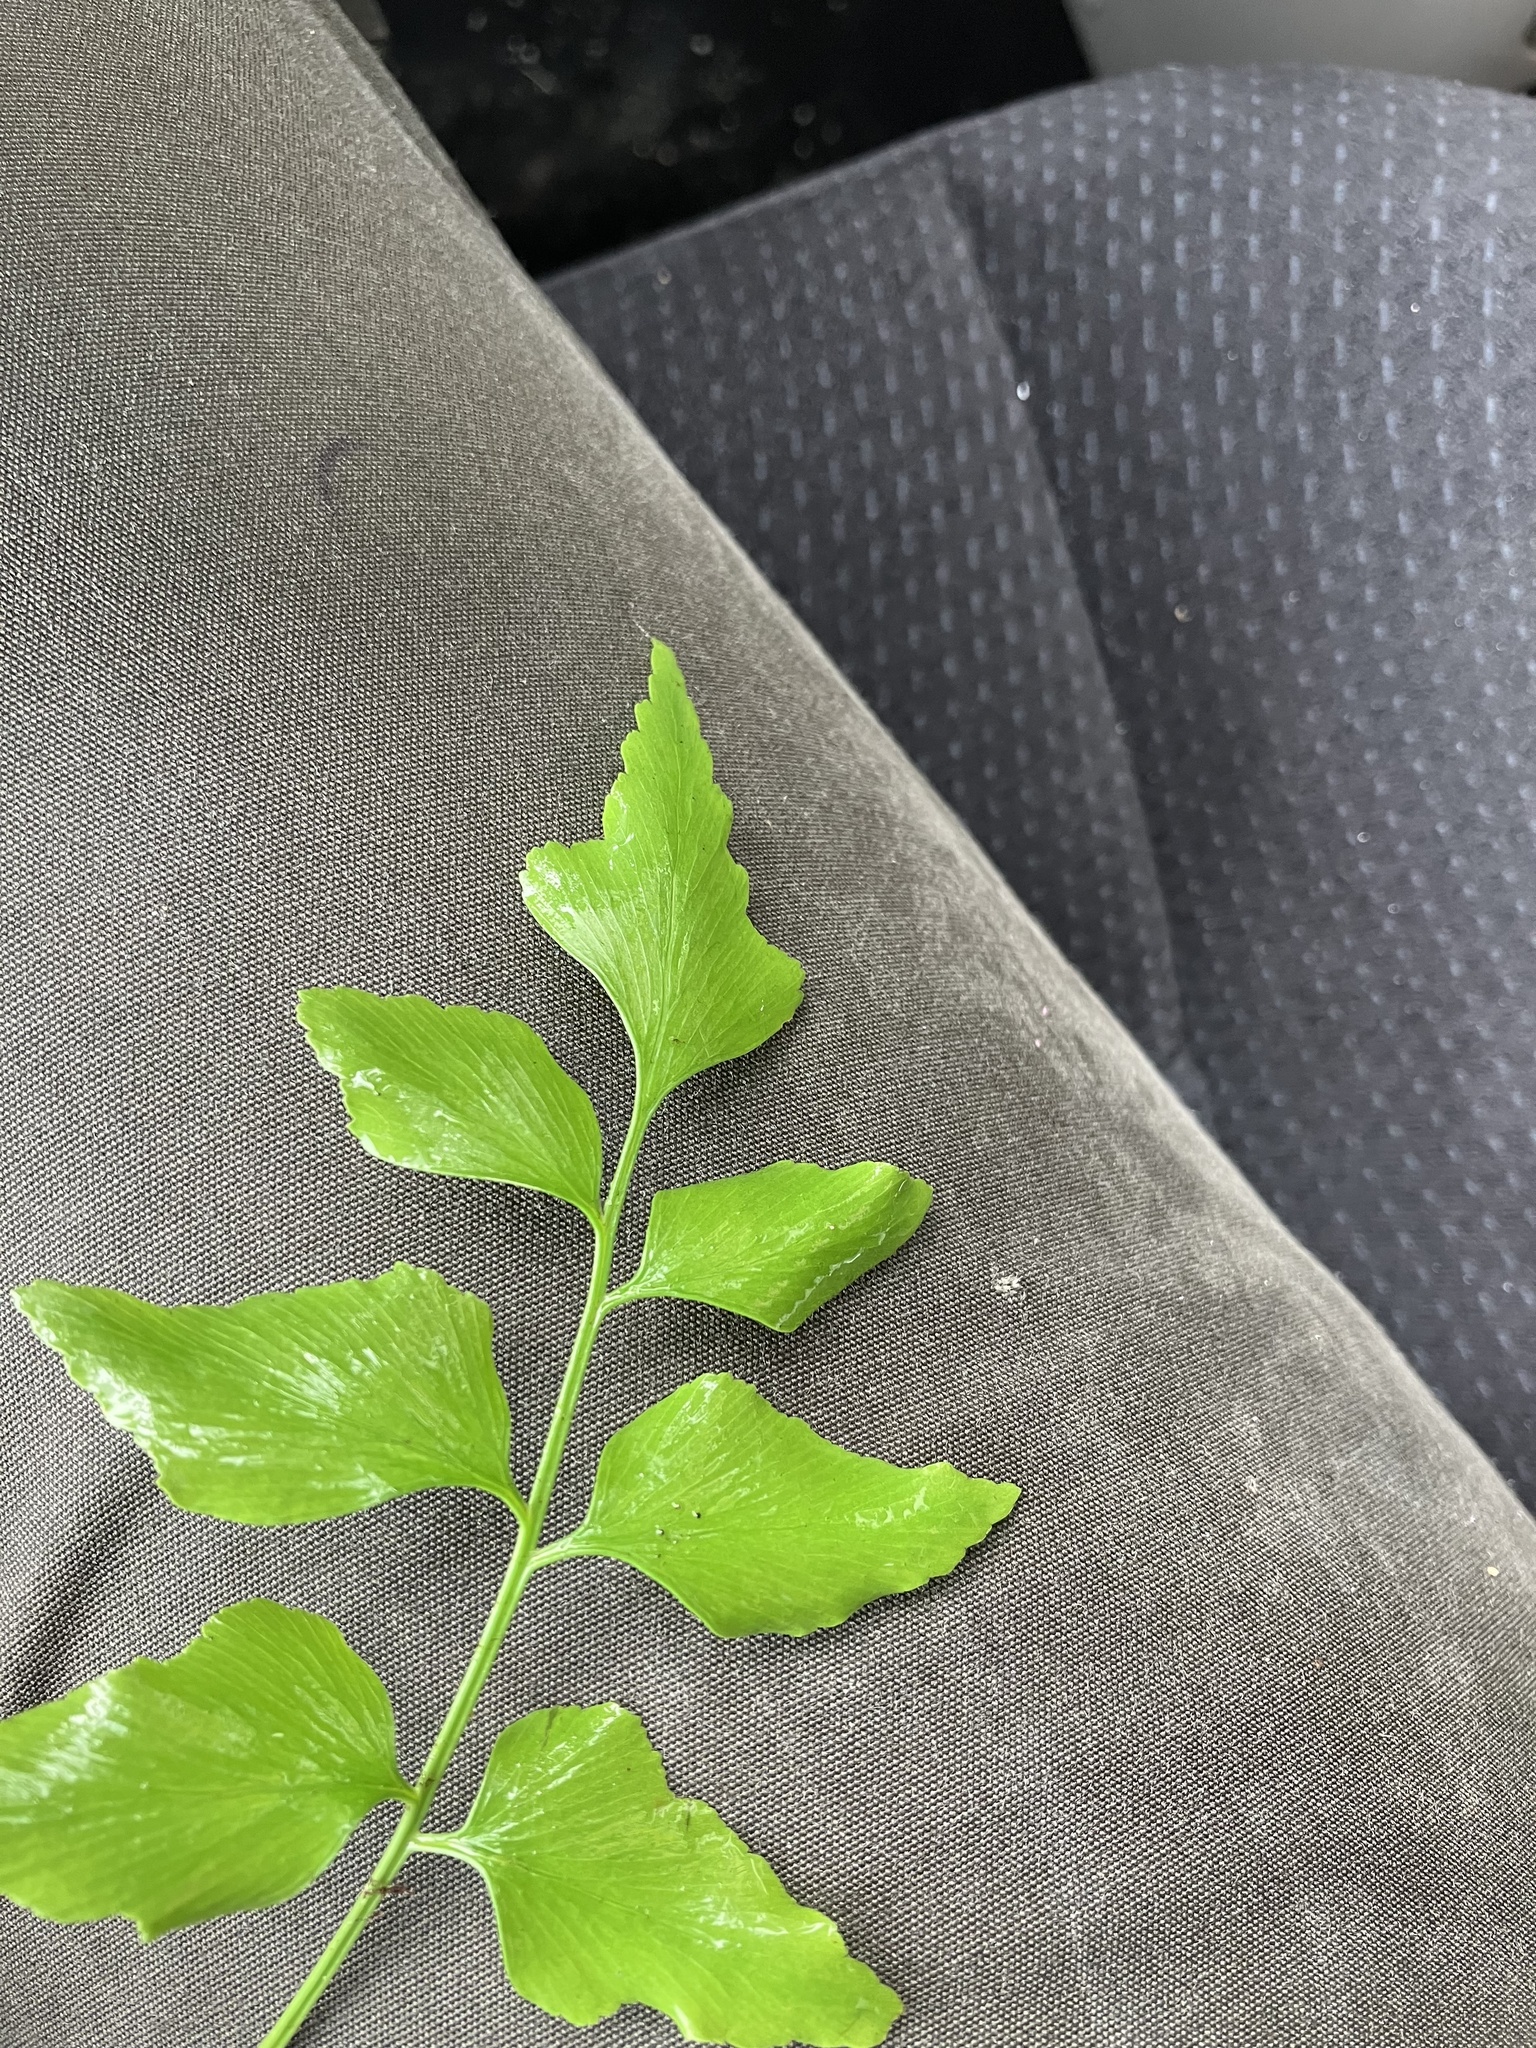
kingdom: Plantae
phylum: Tracheophyta
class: Polypodiopsida
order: Polypodiales
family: Aspleniaceae
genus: Asplenium
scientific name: Asplenium macrophyllum
